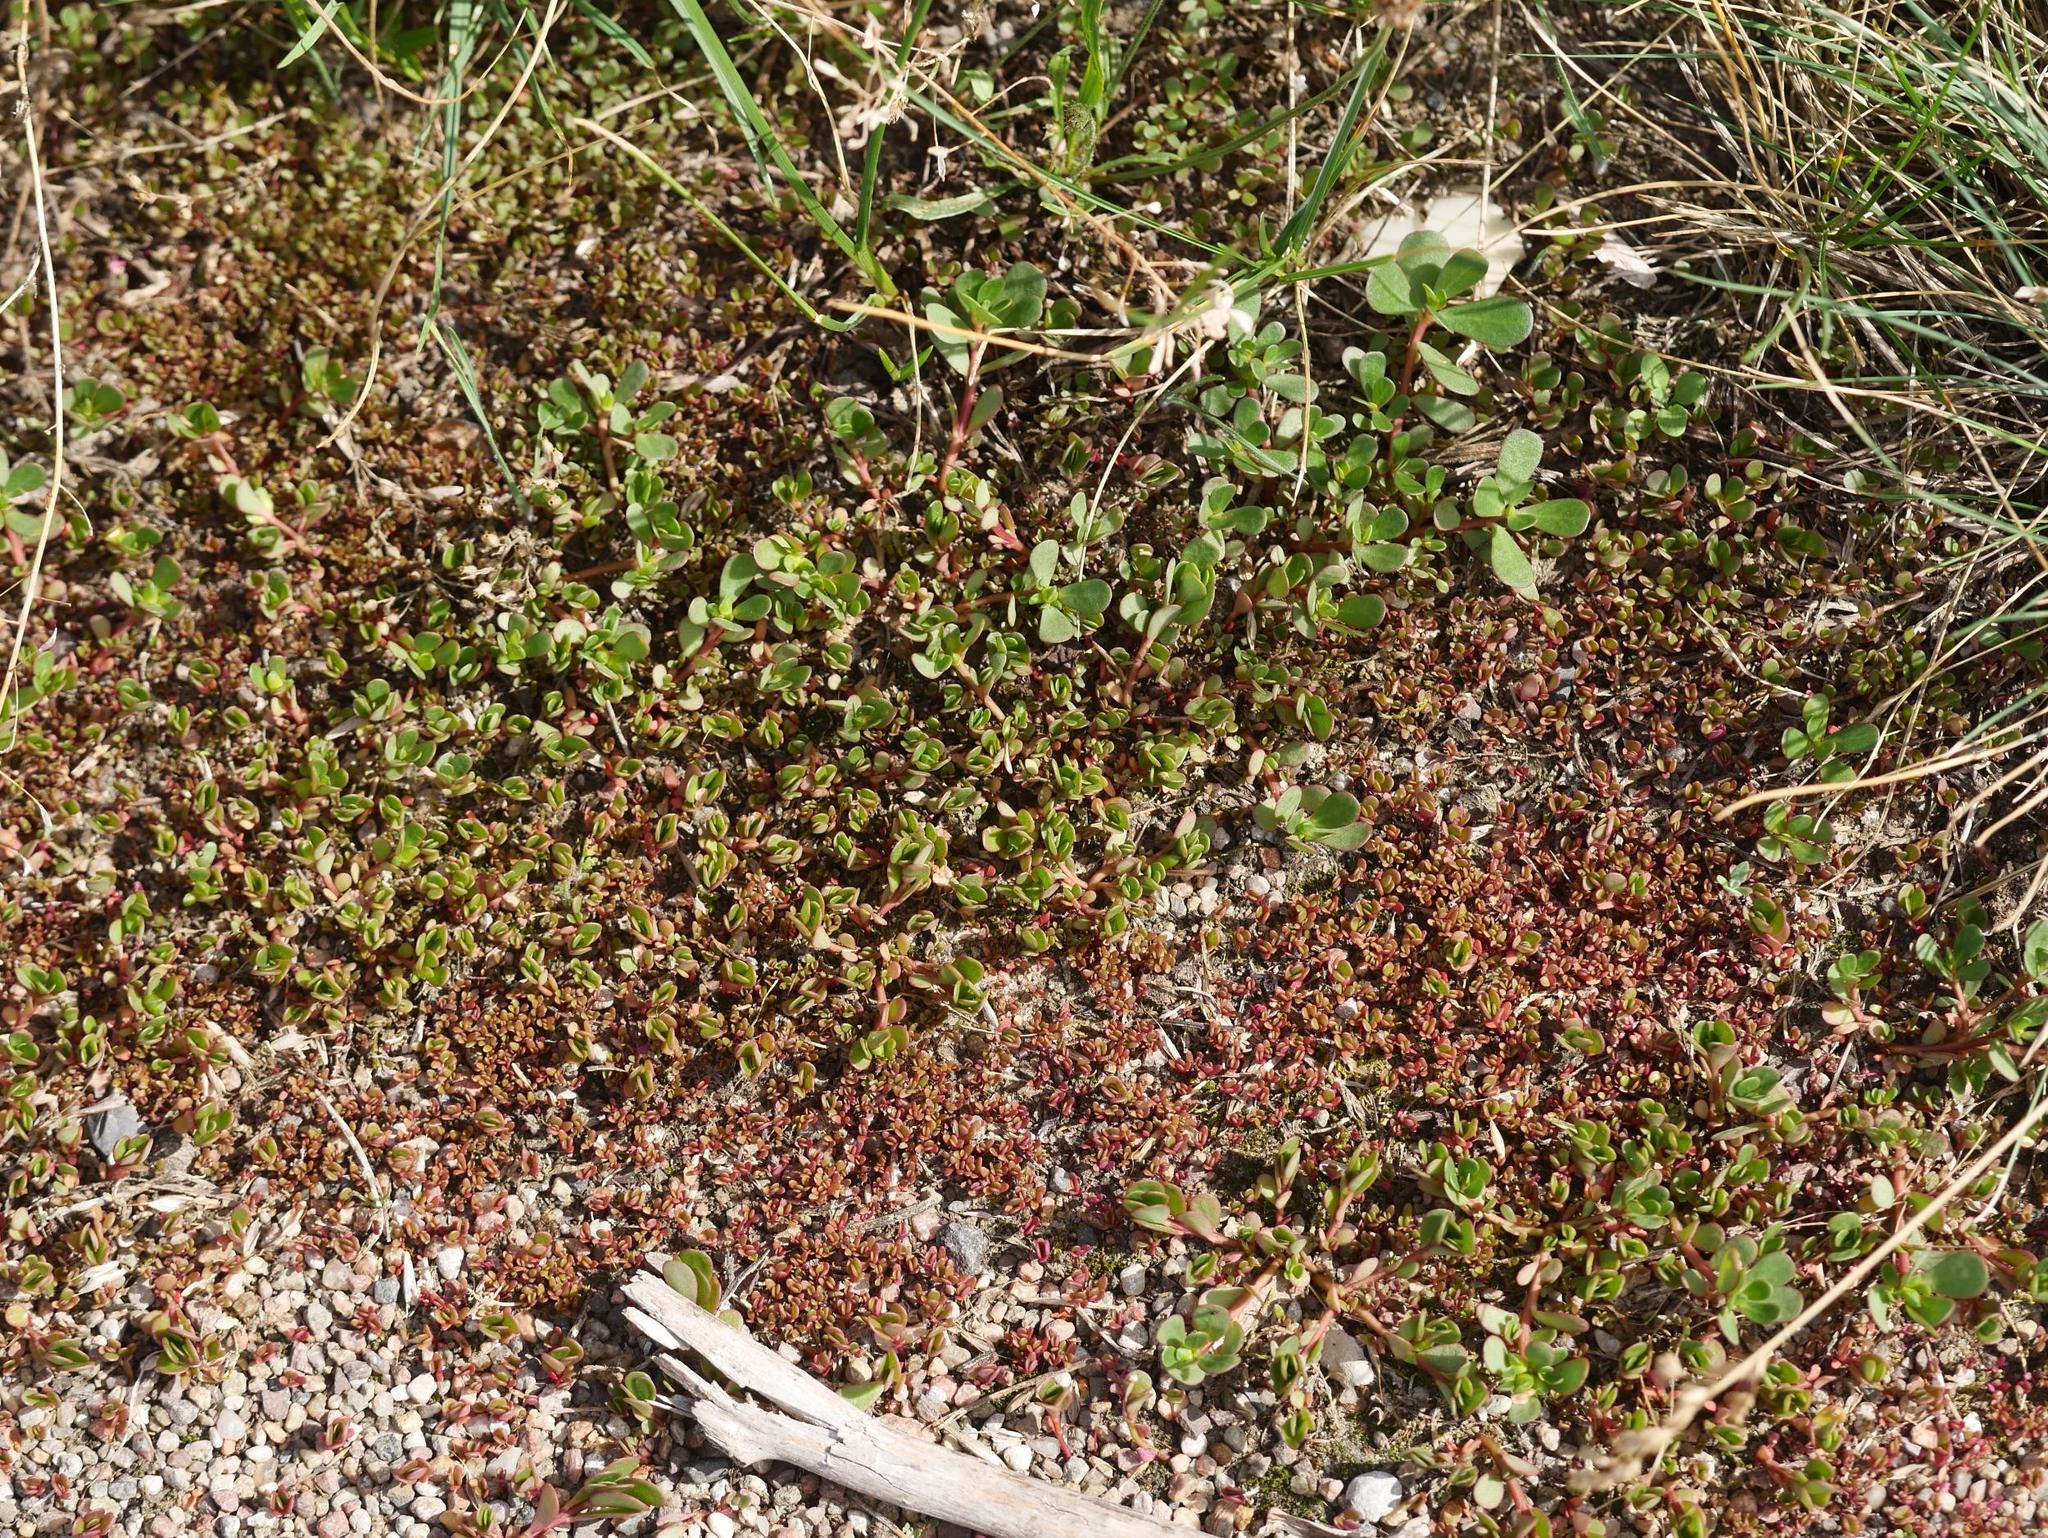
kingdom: Plantae
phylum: Tracheophyta
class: Magnoliopsida
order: Caryophyllales
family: Portulacaceae
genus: Portulaca
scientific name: Portulaca oleracea
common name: Common purslane
